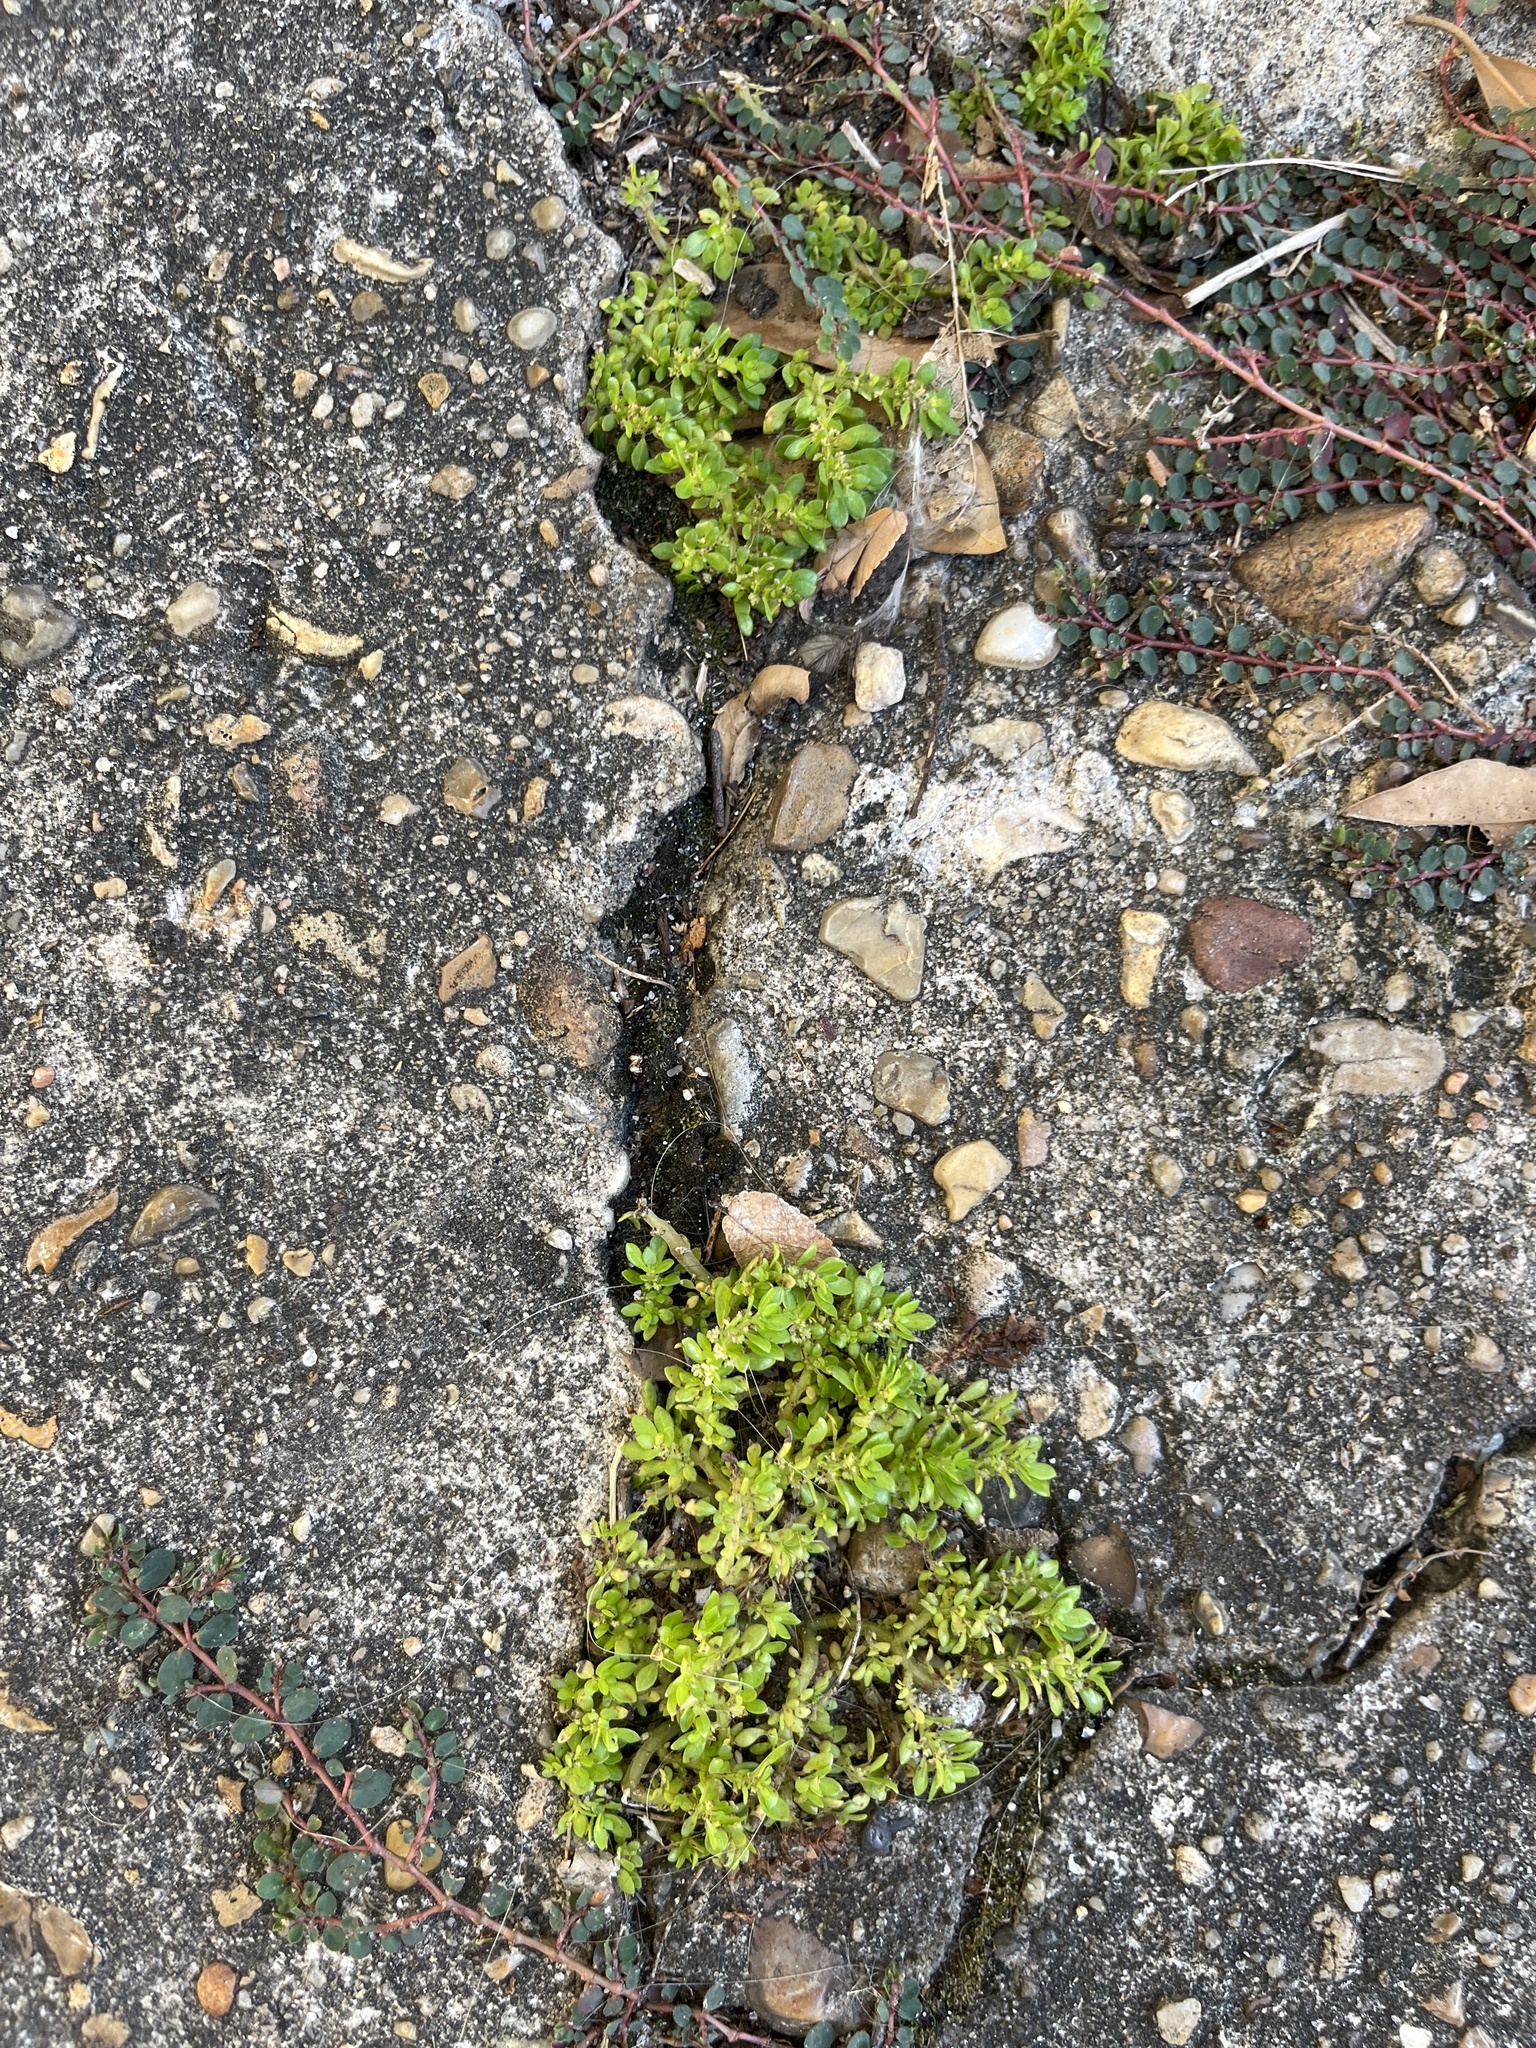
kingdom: Plantae
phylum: Tracheophyta
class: Magnoliopsida
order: Rosales
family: Urticaceae
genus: Pilea
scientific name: Pilea microphylla
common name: Artillery-plant
